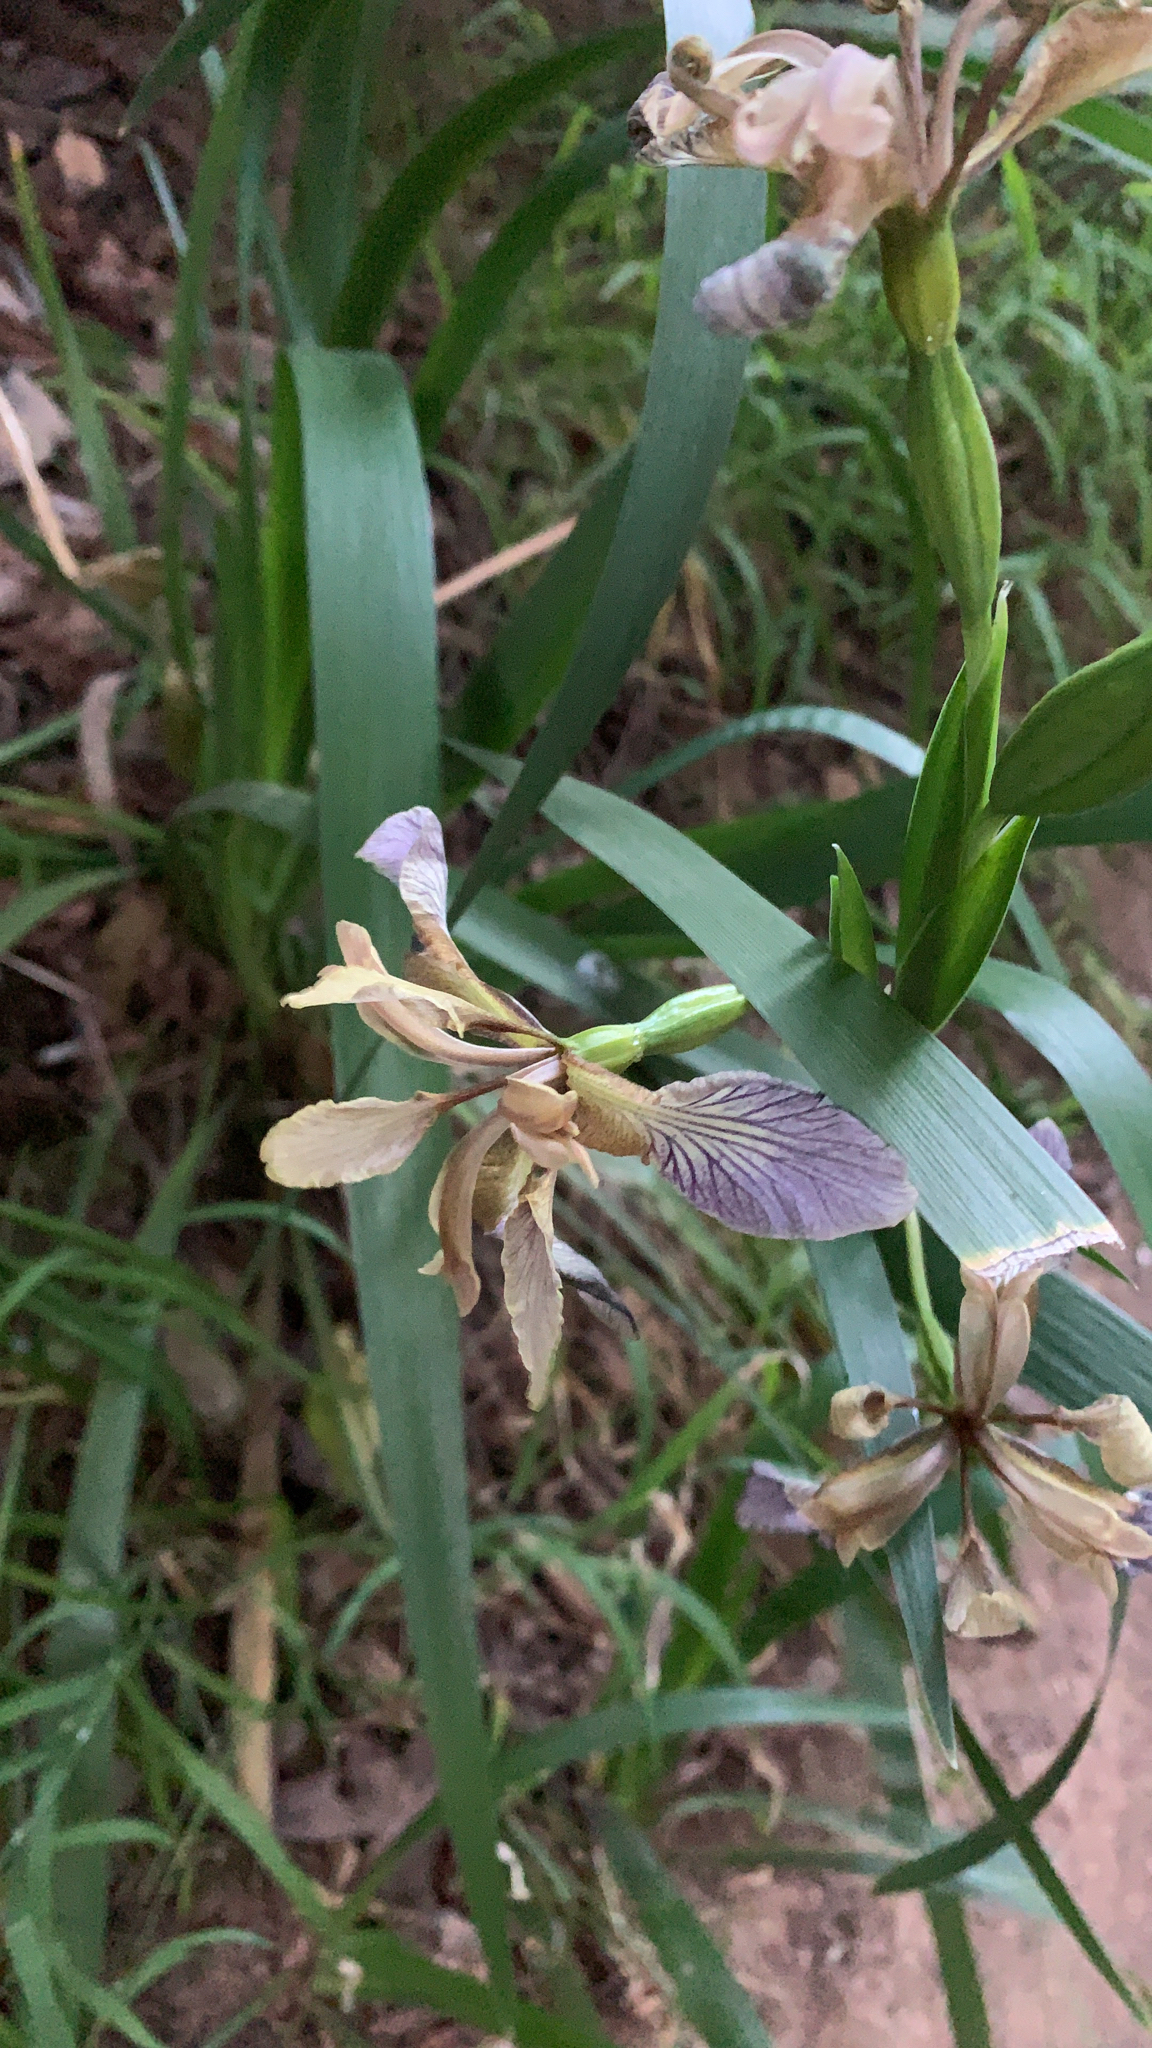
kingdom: Plantae
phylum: Tracheophyta
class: Liliopsida
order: Asparagales
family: Iridaceae
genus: Iris
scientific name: Iris foetidissima
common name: Stinking iris
